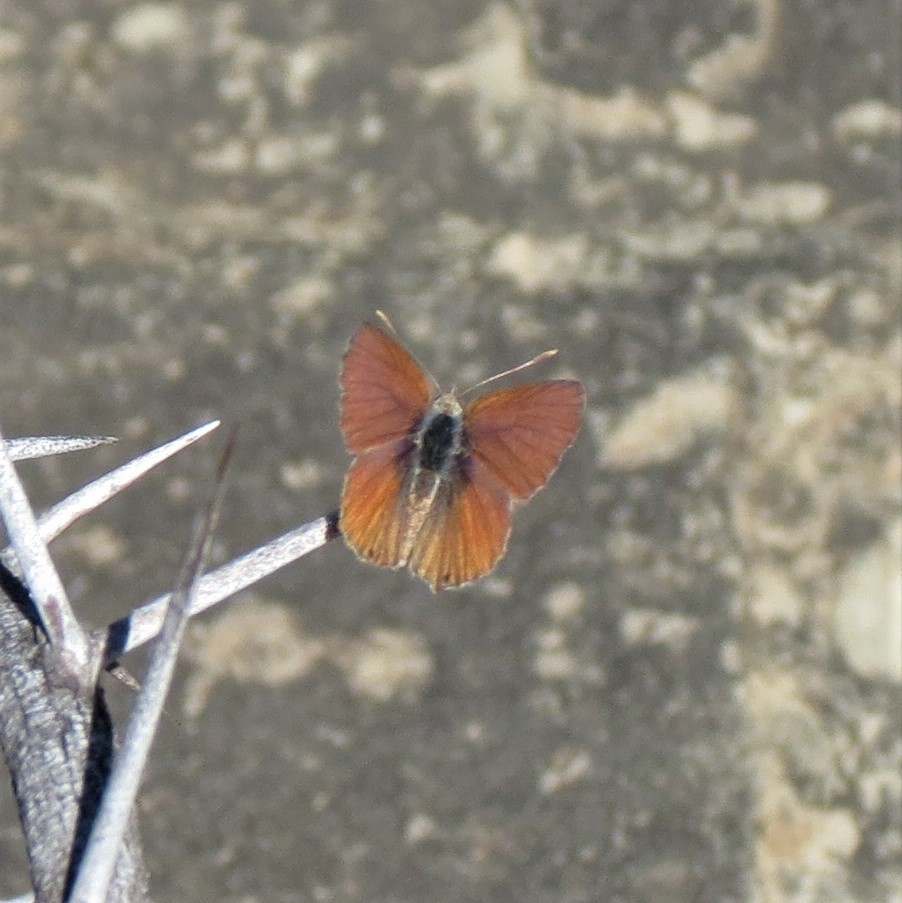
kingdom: Animalia
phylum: Arthropoda
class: Insecta
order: Lepidoptera
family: Lycaenidae
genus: Cacyreus
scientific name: Cacyreus fracta
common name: Water bronze
